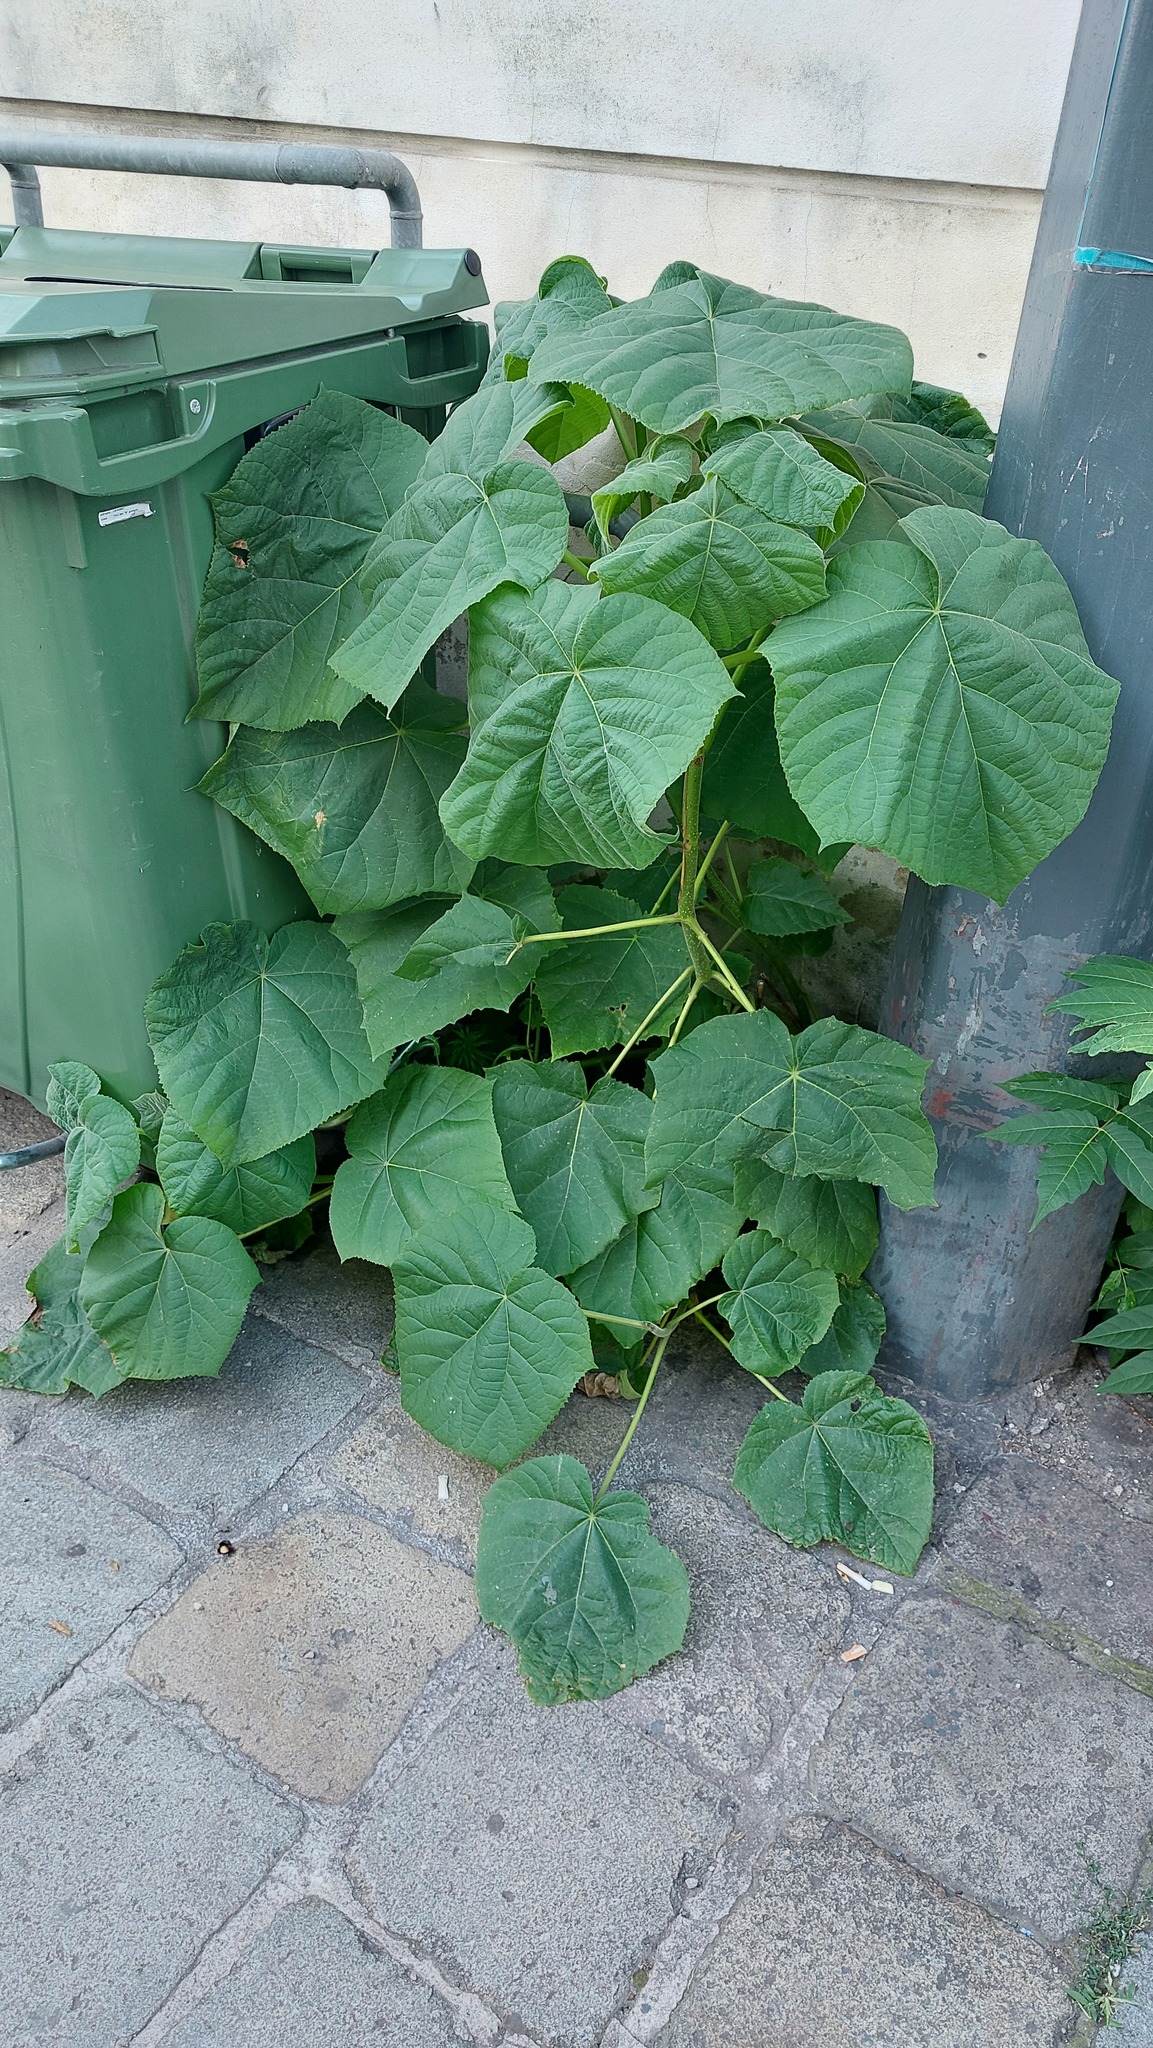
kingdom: Plantae
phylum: Tracheophyta
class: Magnoliopsida
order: Lamiales
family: Paulowniaceae
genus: Paulownia
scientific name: Paulownia tomentosa
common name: Foxglove-tree
